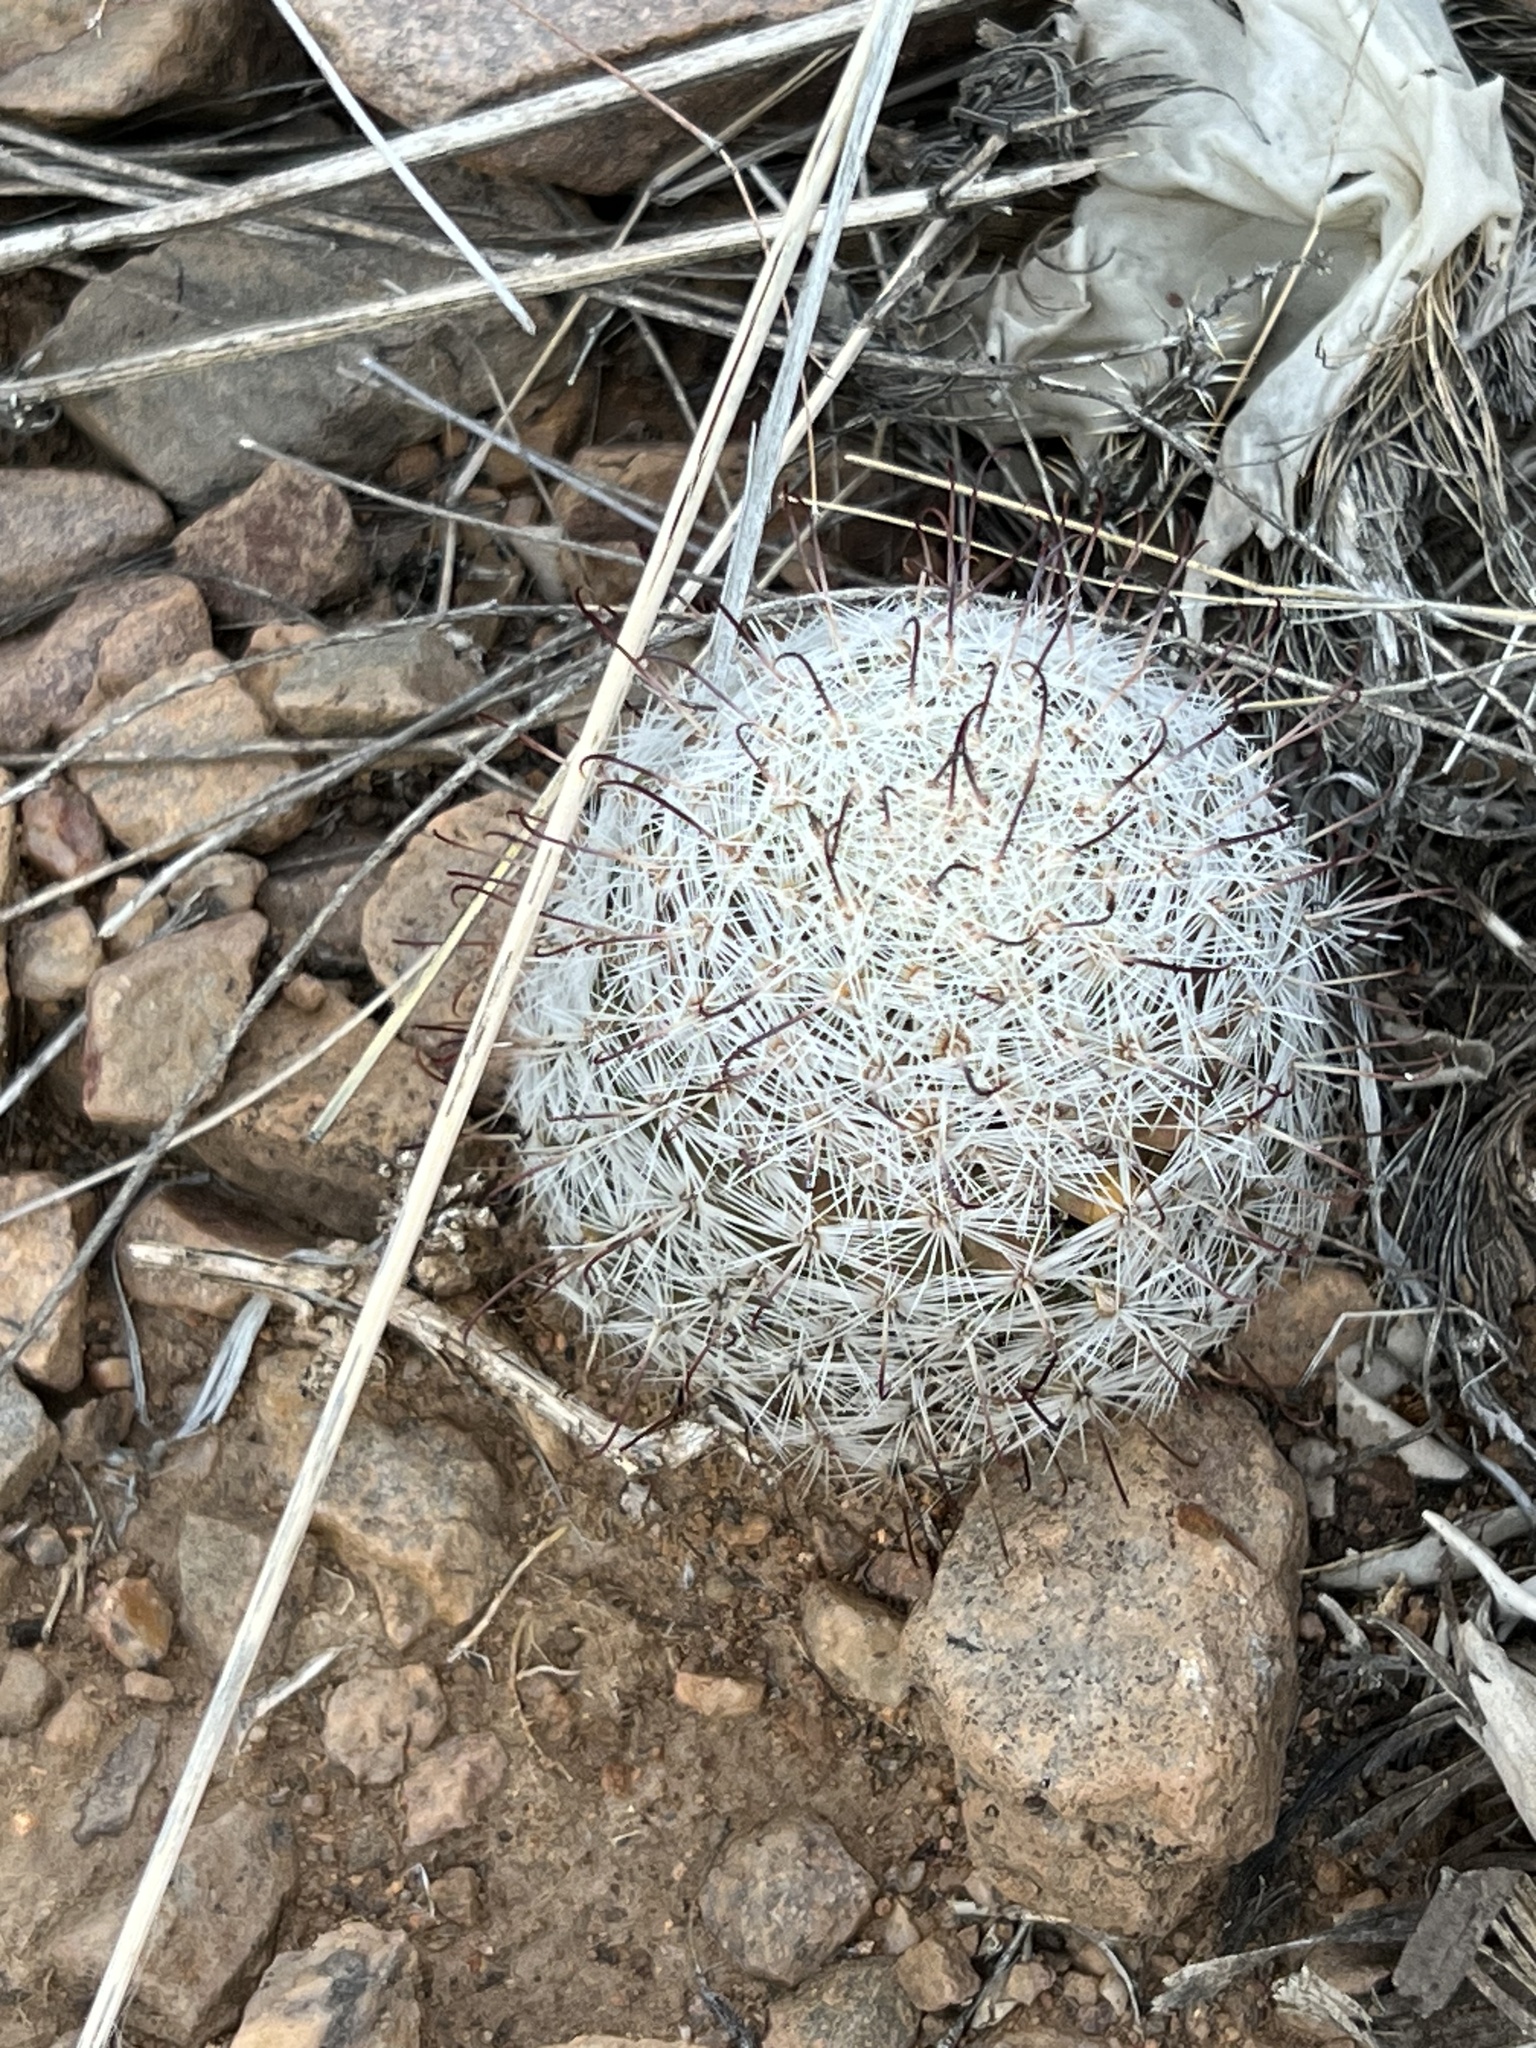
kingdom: Plantae
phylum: Tracheophyta
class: Magnoliopsida
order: Caryophyllales
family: Cactaceae
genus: Cochemiea
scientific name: Cochemiea grahamii
